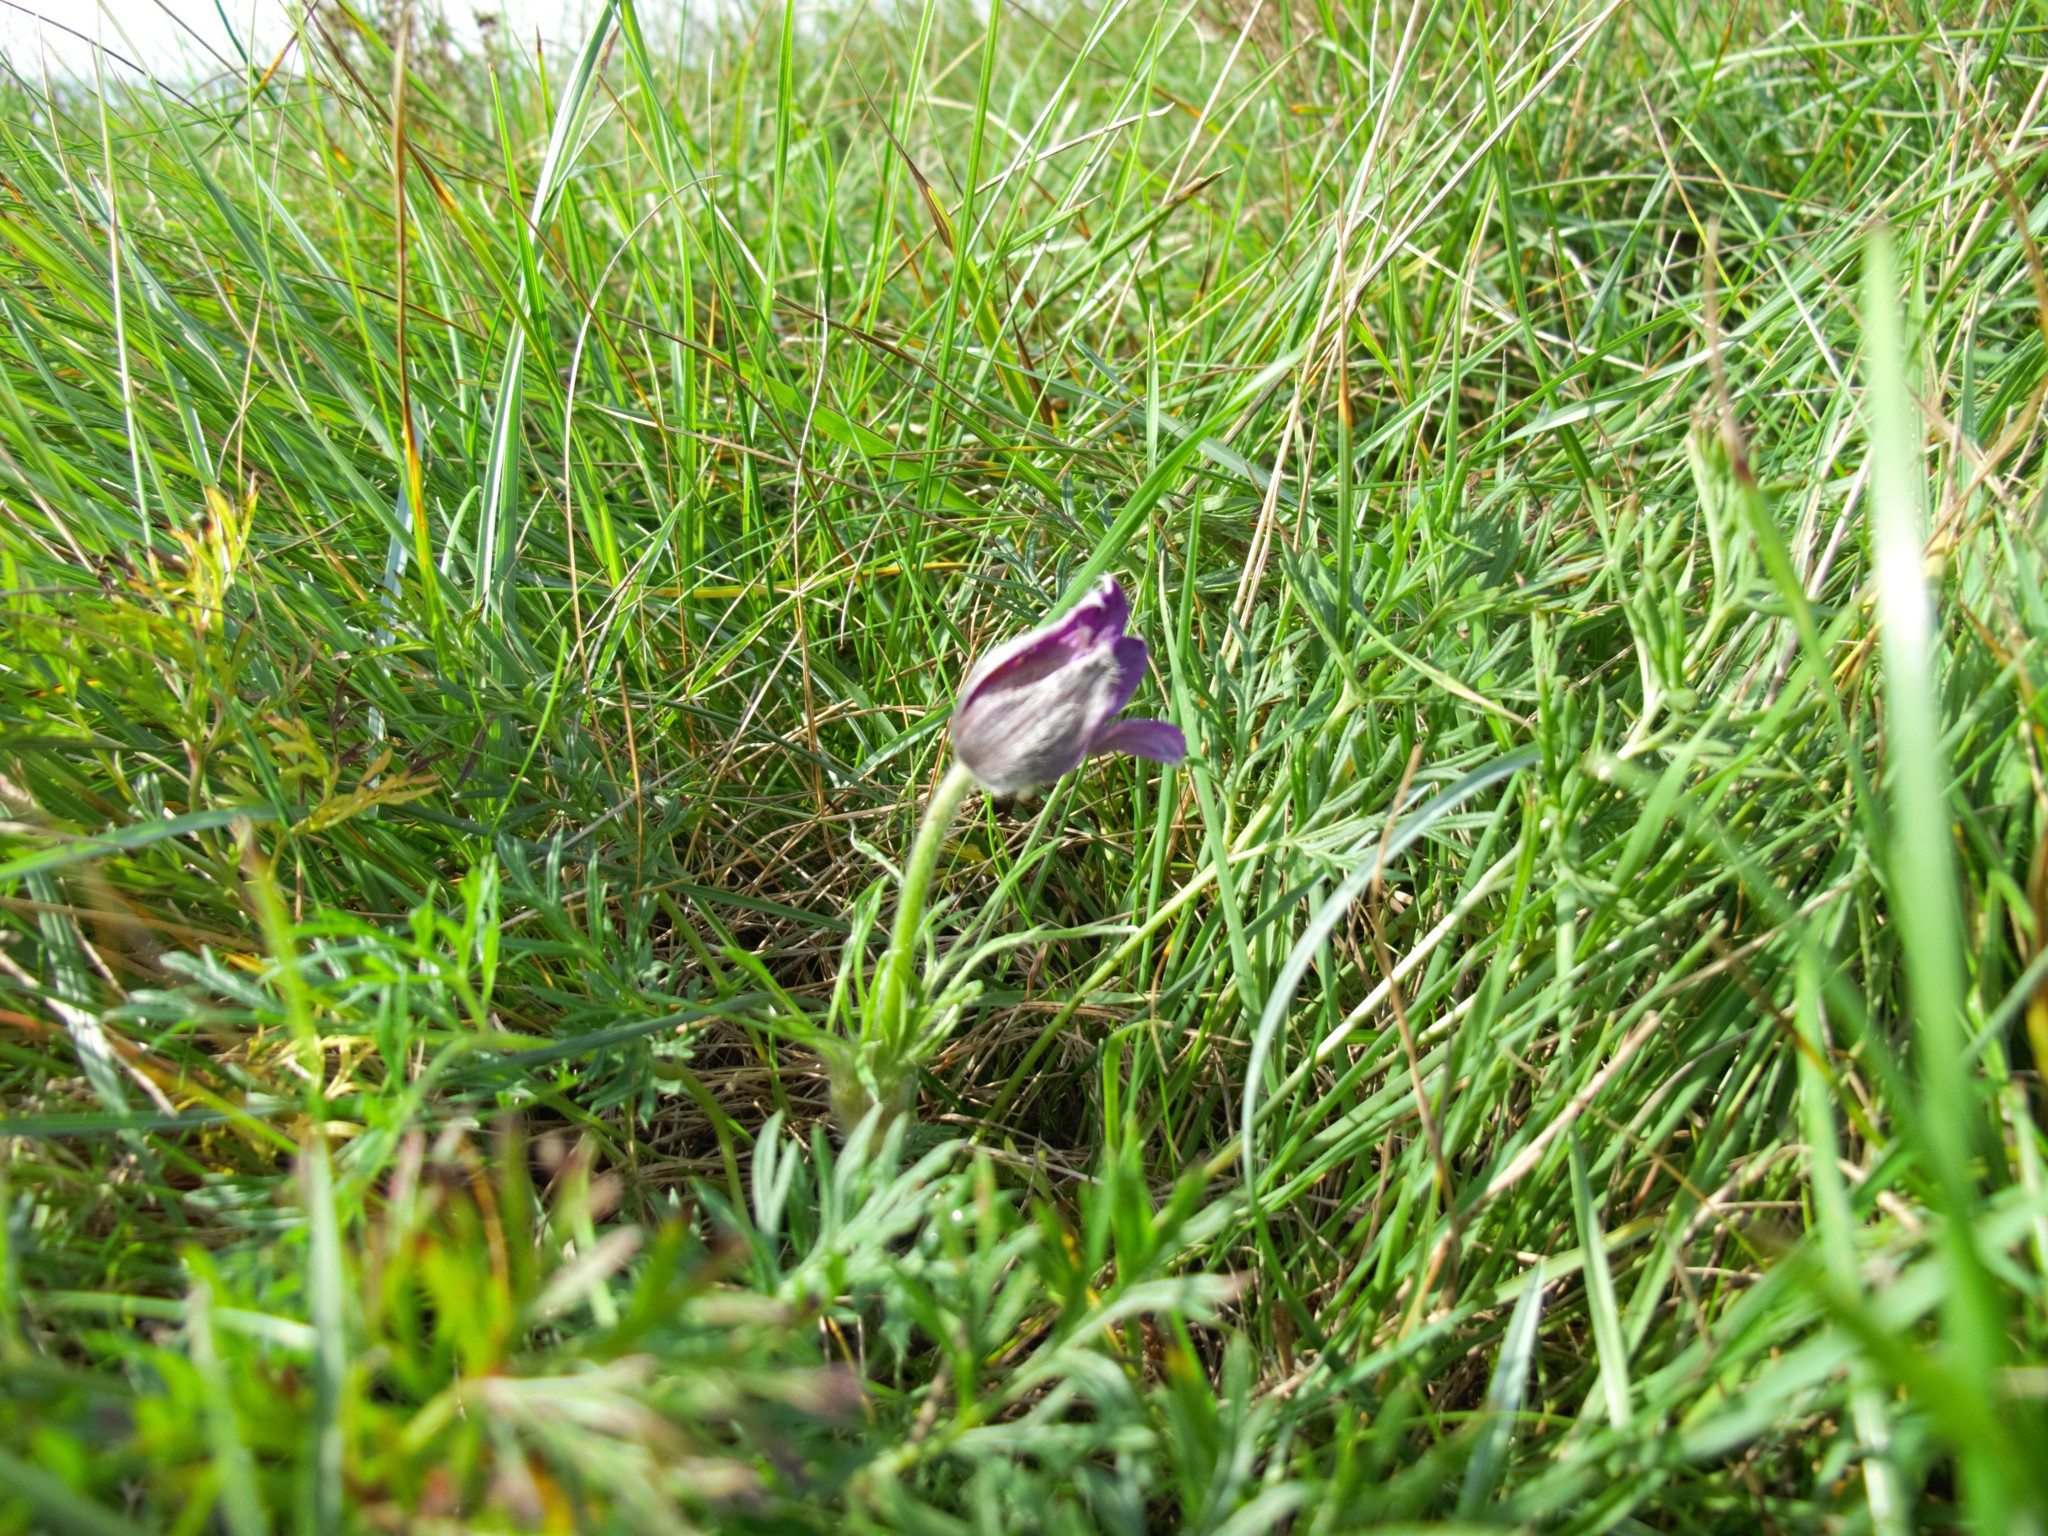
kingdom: Plantae
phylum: Tracheophyta
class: Magnoliopsida
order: Ranunculales
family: Ranunculaceae
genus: Pulsatilla
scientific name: Pulsatilla vulgaris
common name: Pasqueflower
